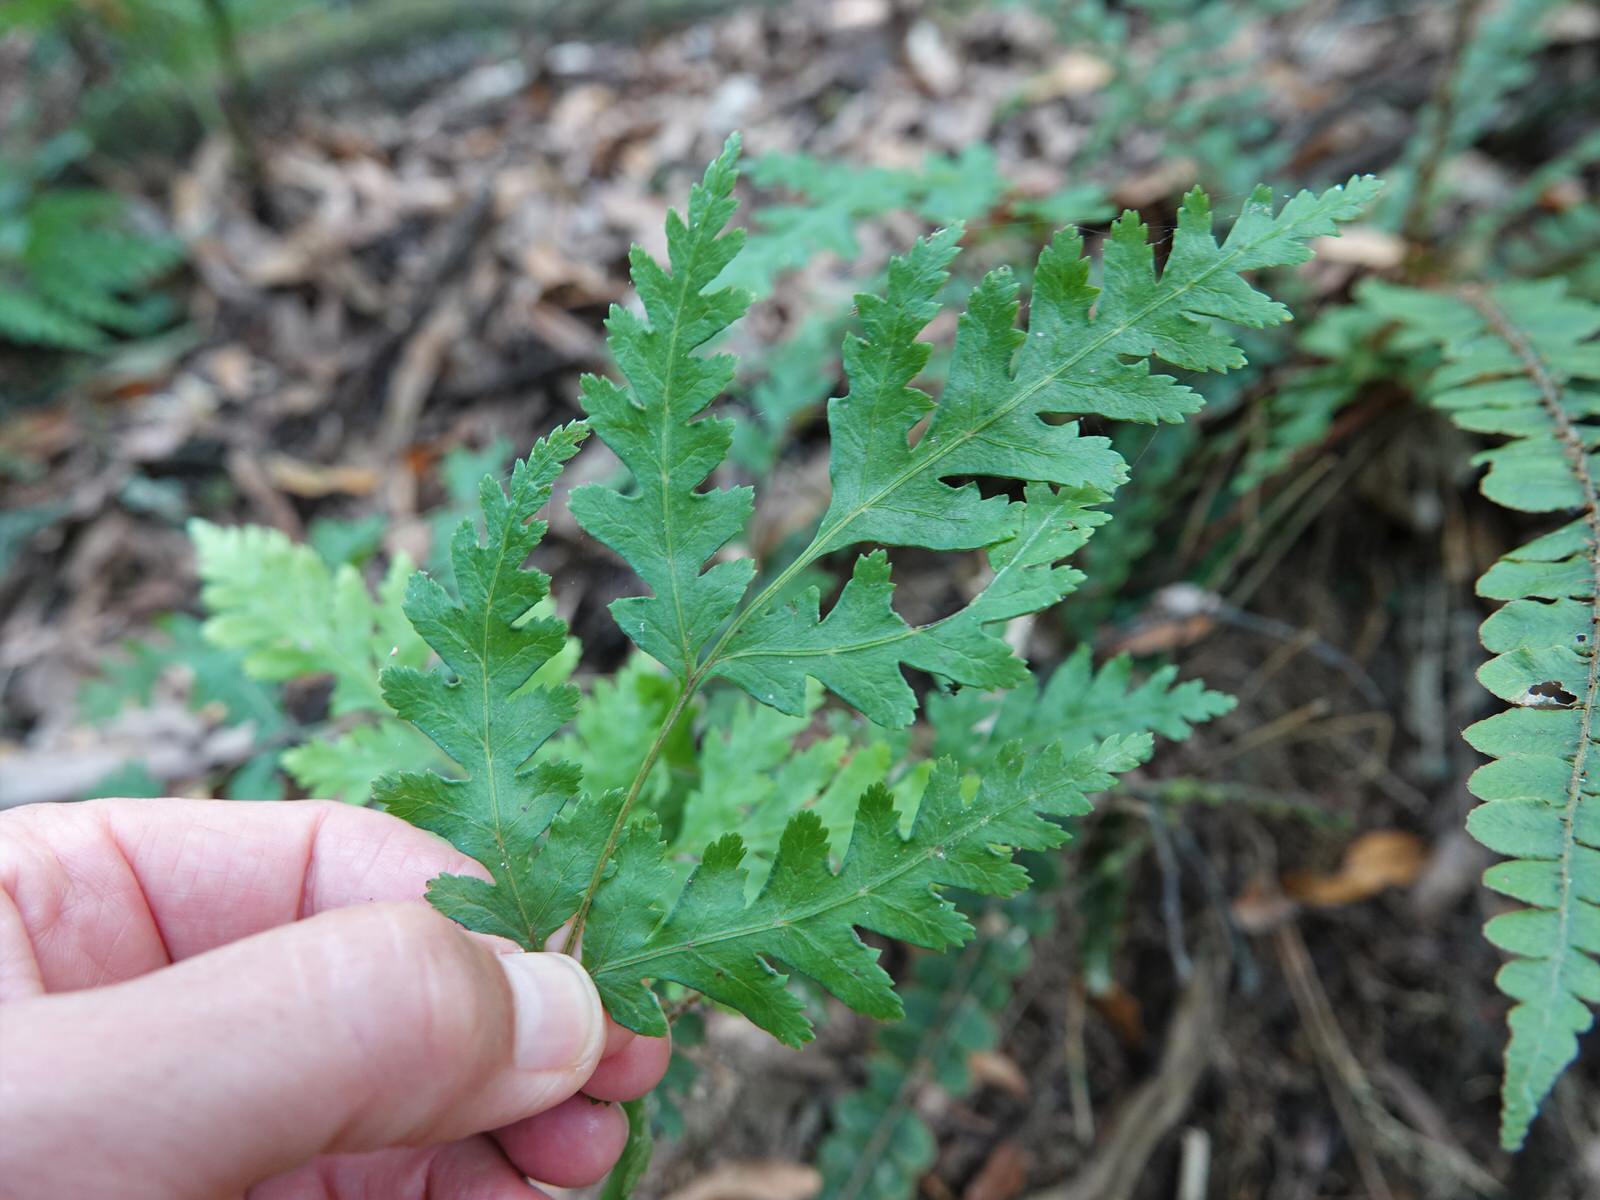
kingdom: Plantae
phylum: Tracheophyta
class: Polypodiopsida
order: Polypodiales
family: Pteridaceae
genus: Pteris
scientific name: Pteris macilenta
